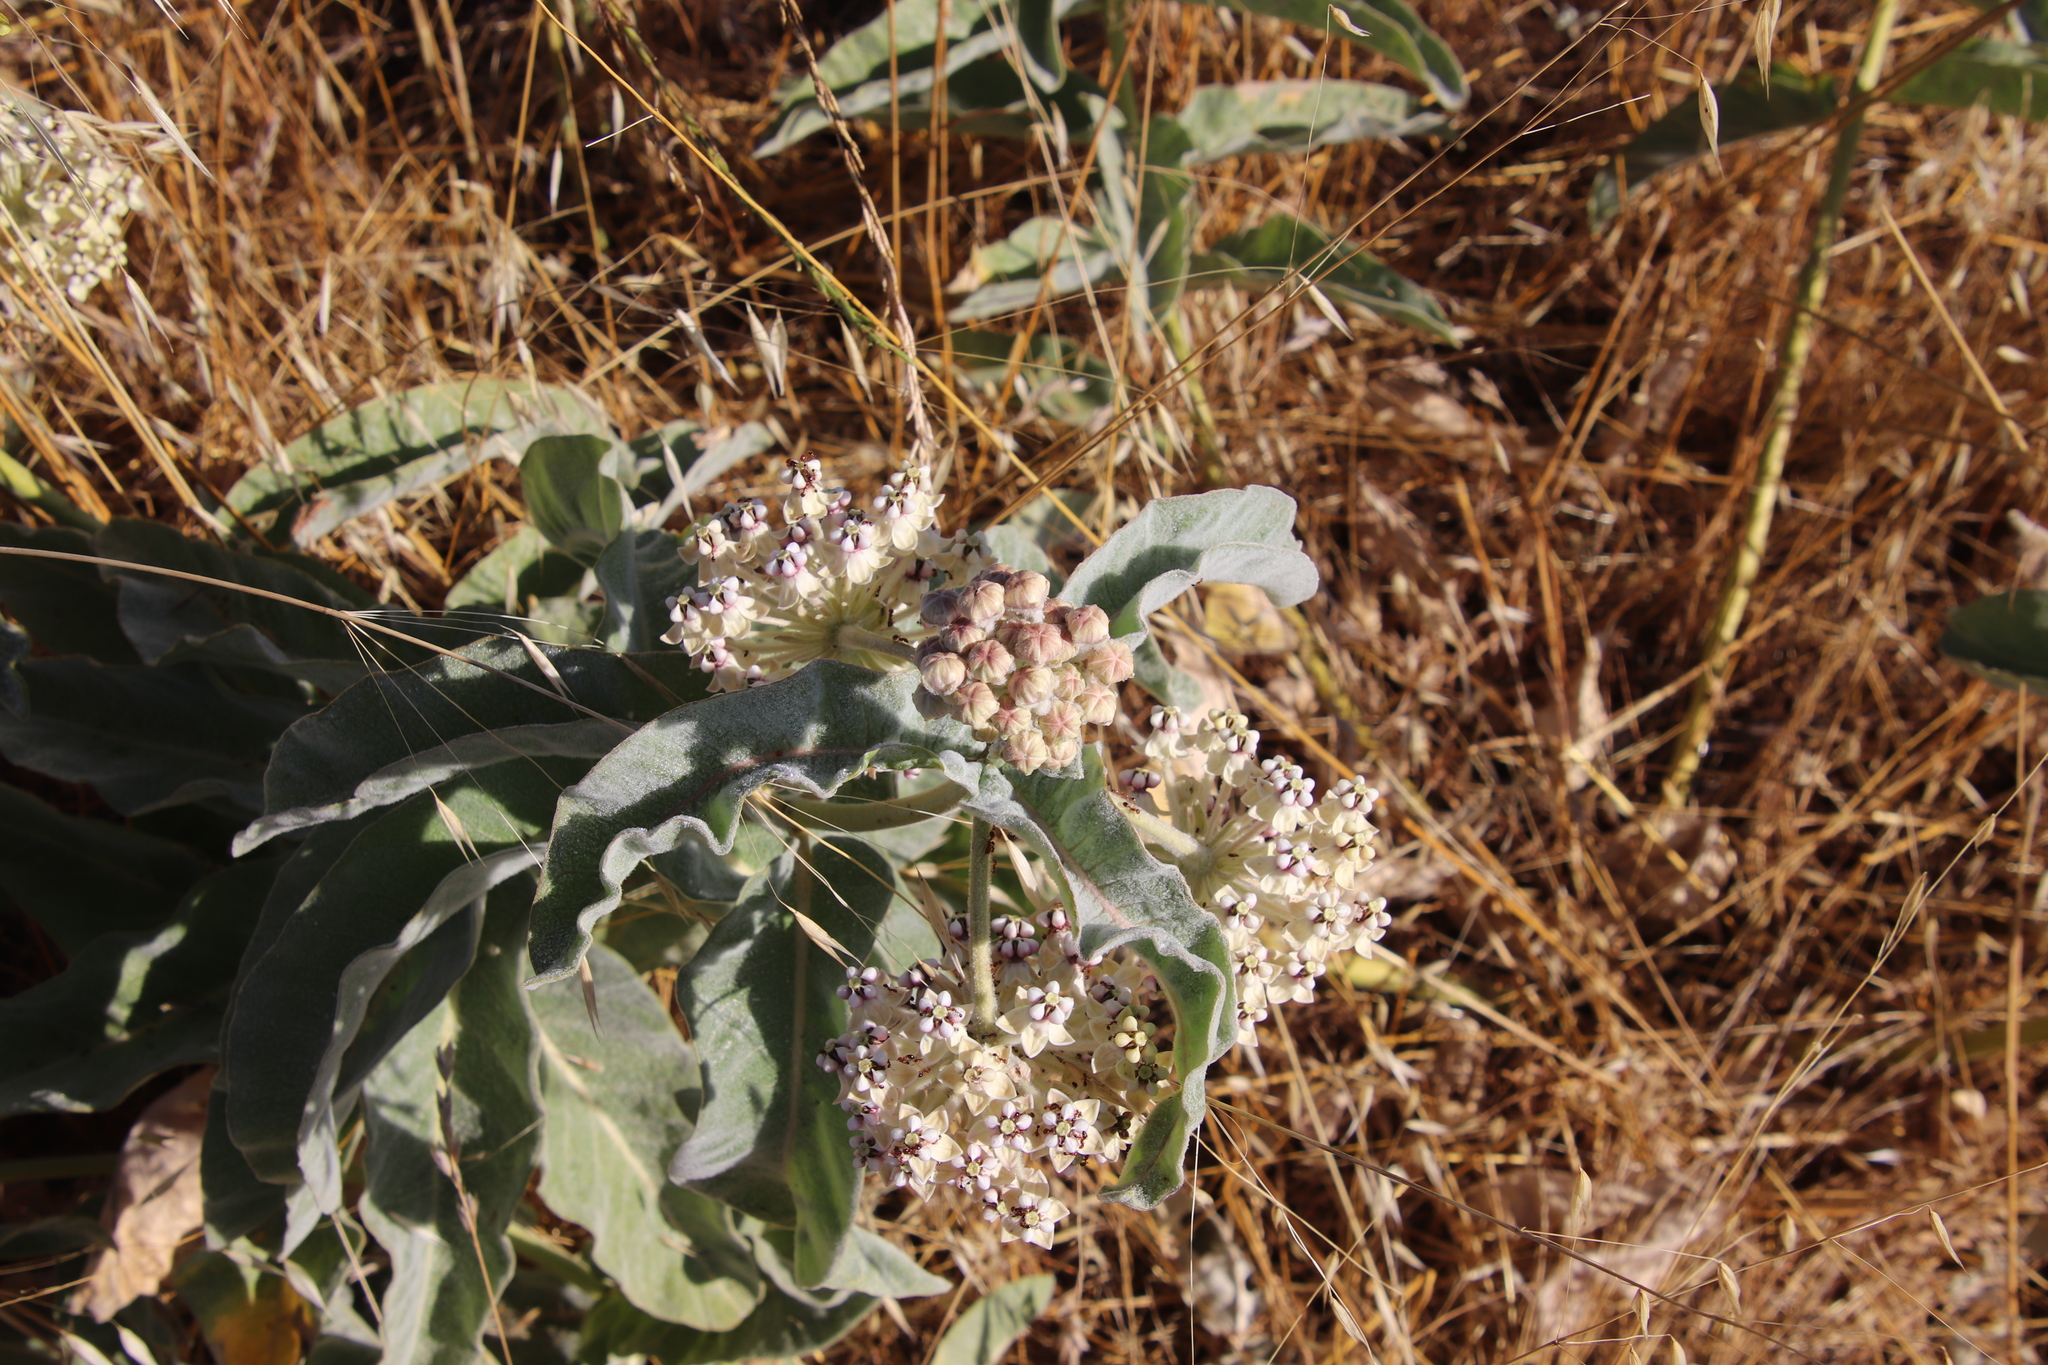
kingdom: Plantae
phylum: Tracheophyta
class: Magnoliopsida
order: Gentianales
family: Apocynaceae
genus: Asclepias
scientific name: Asclepias eriocarpa
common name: Indian milkweed
